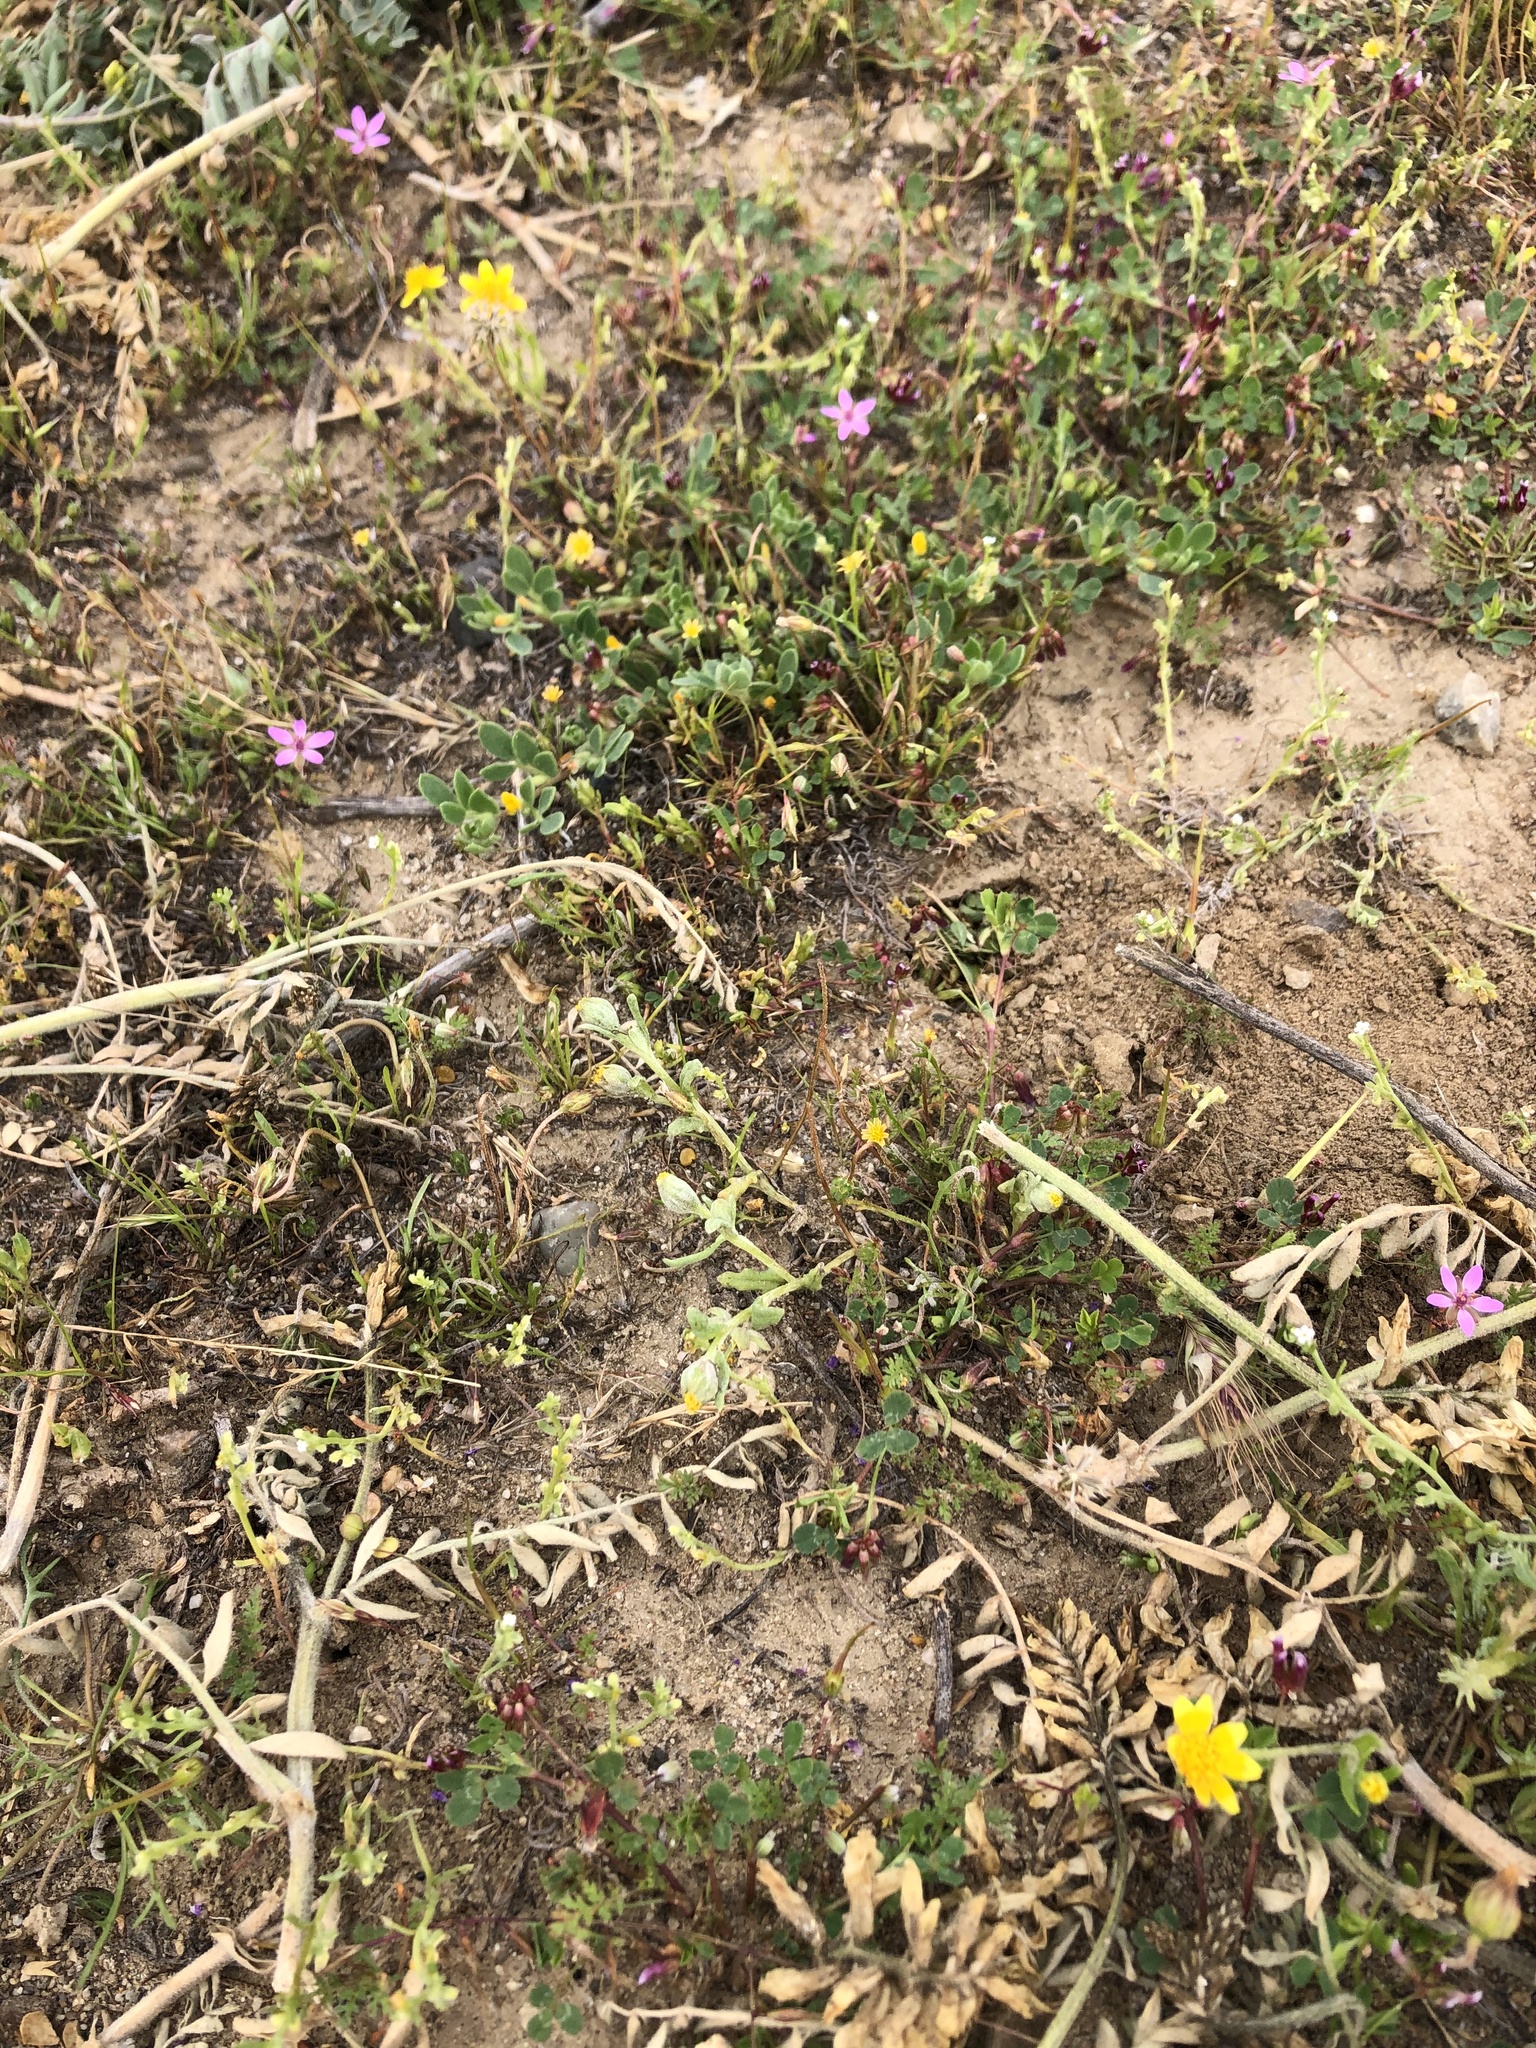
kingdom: Plantae
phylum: Tracheophyta
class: Magnoliopsida
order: Asterales
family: Asteraceae
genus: Monolopia
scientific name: Monolopia congdonii
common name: San joaquin woolly-threads
